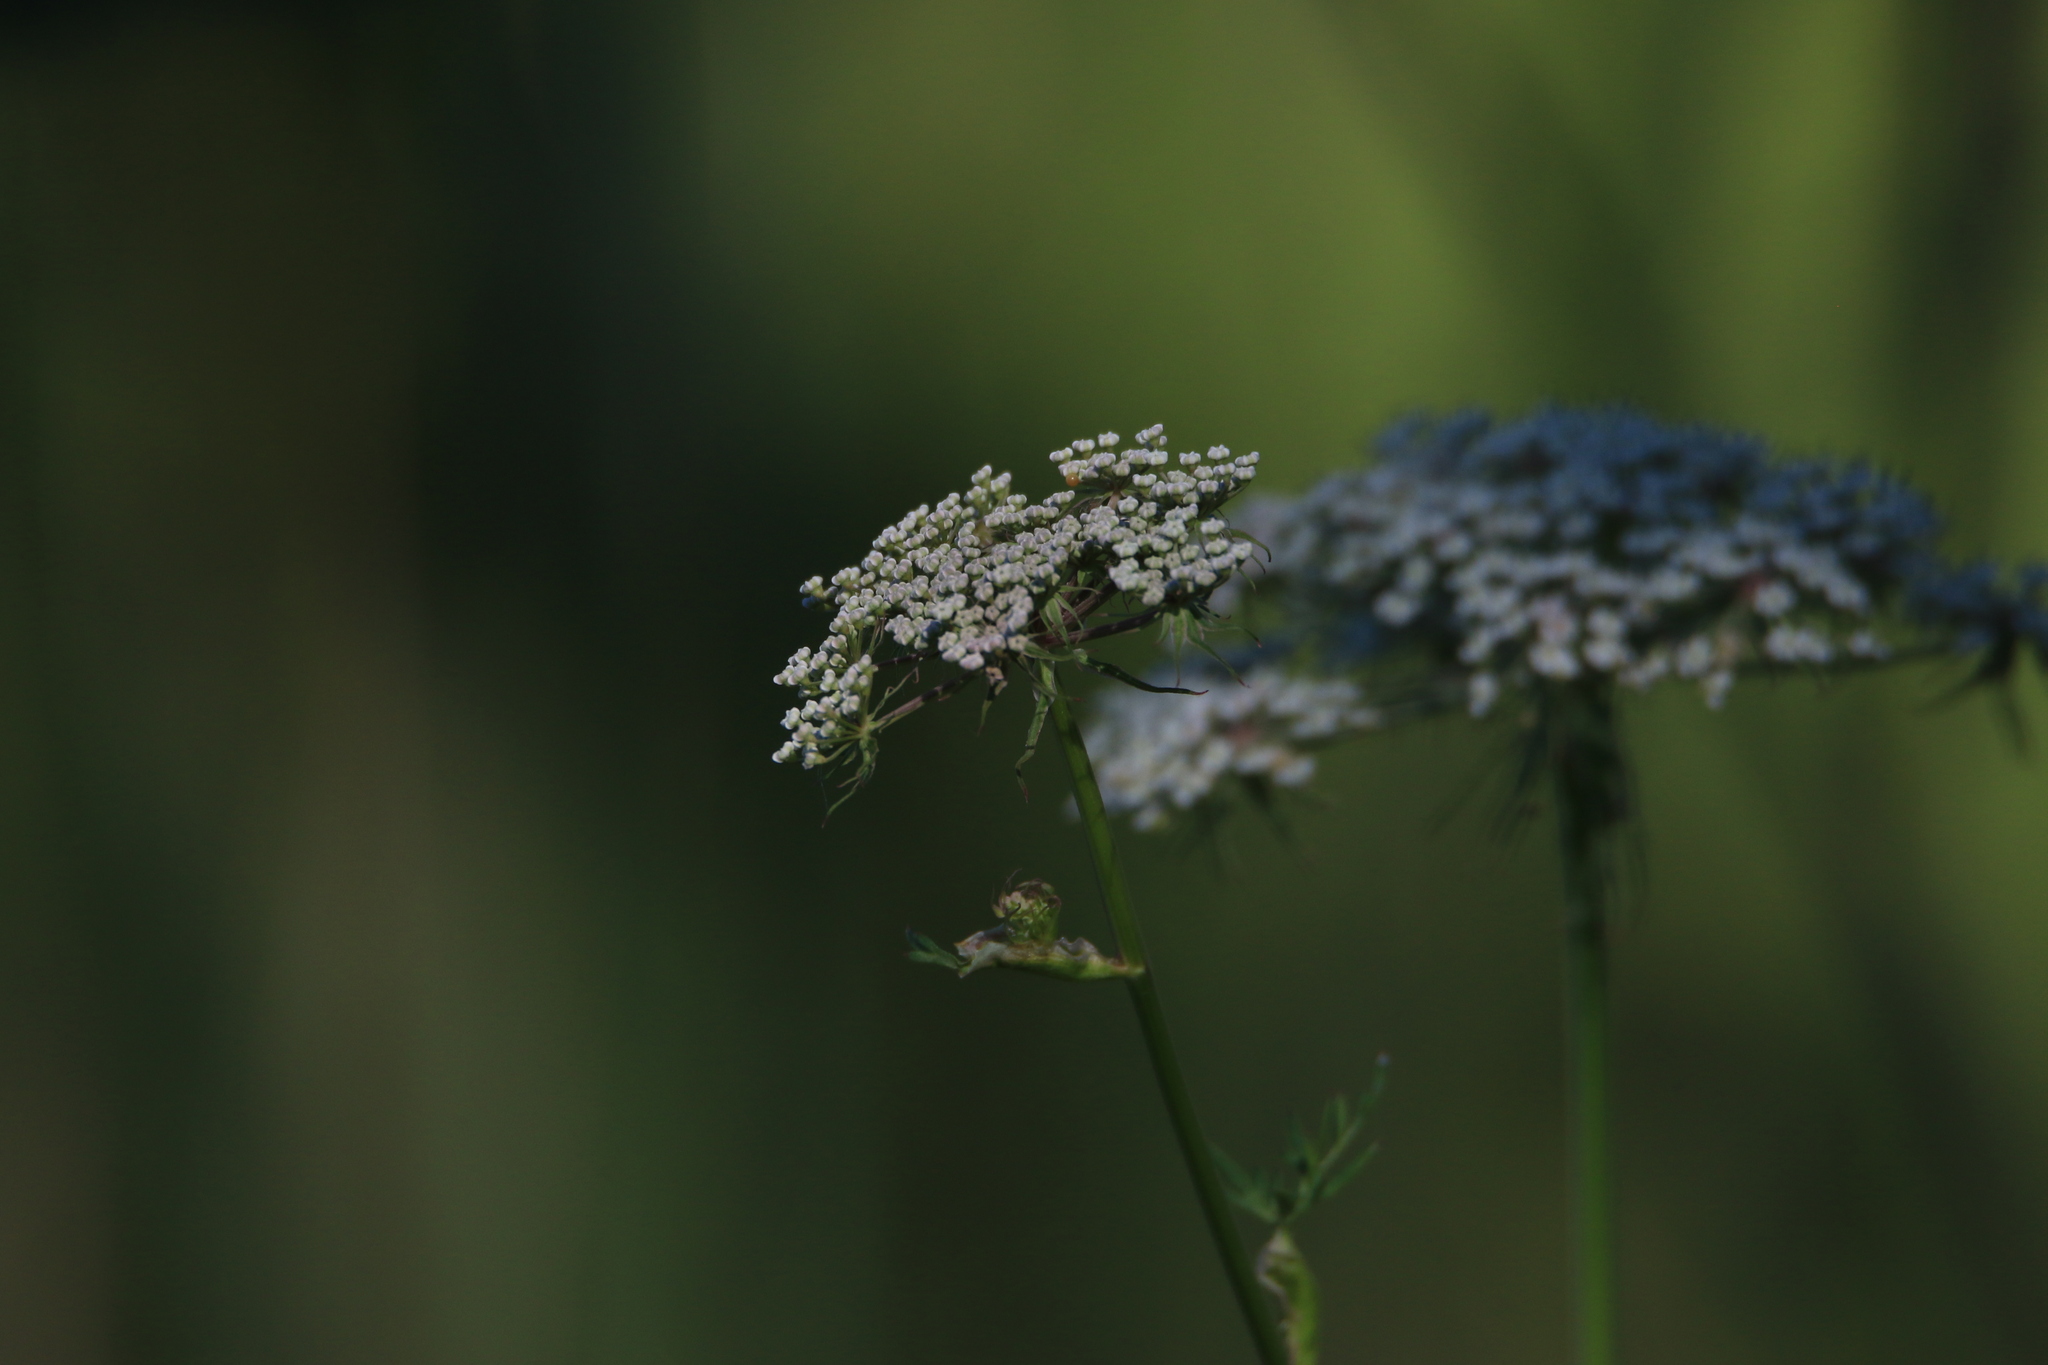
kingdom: Plantae
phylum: Tracheophyta
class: Magnoliopsida
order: Apiales
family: Apiaceae
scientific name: Apiaceae
